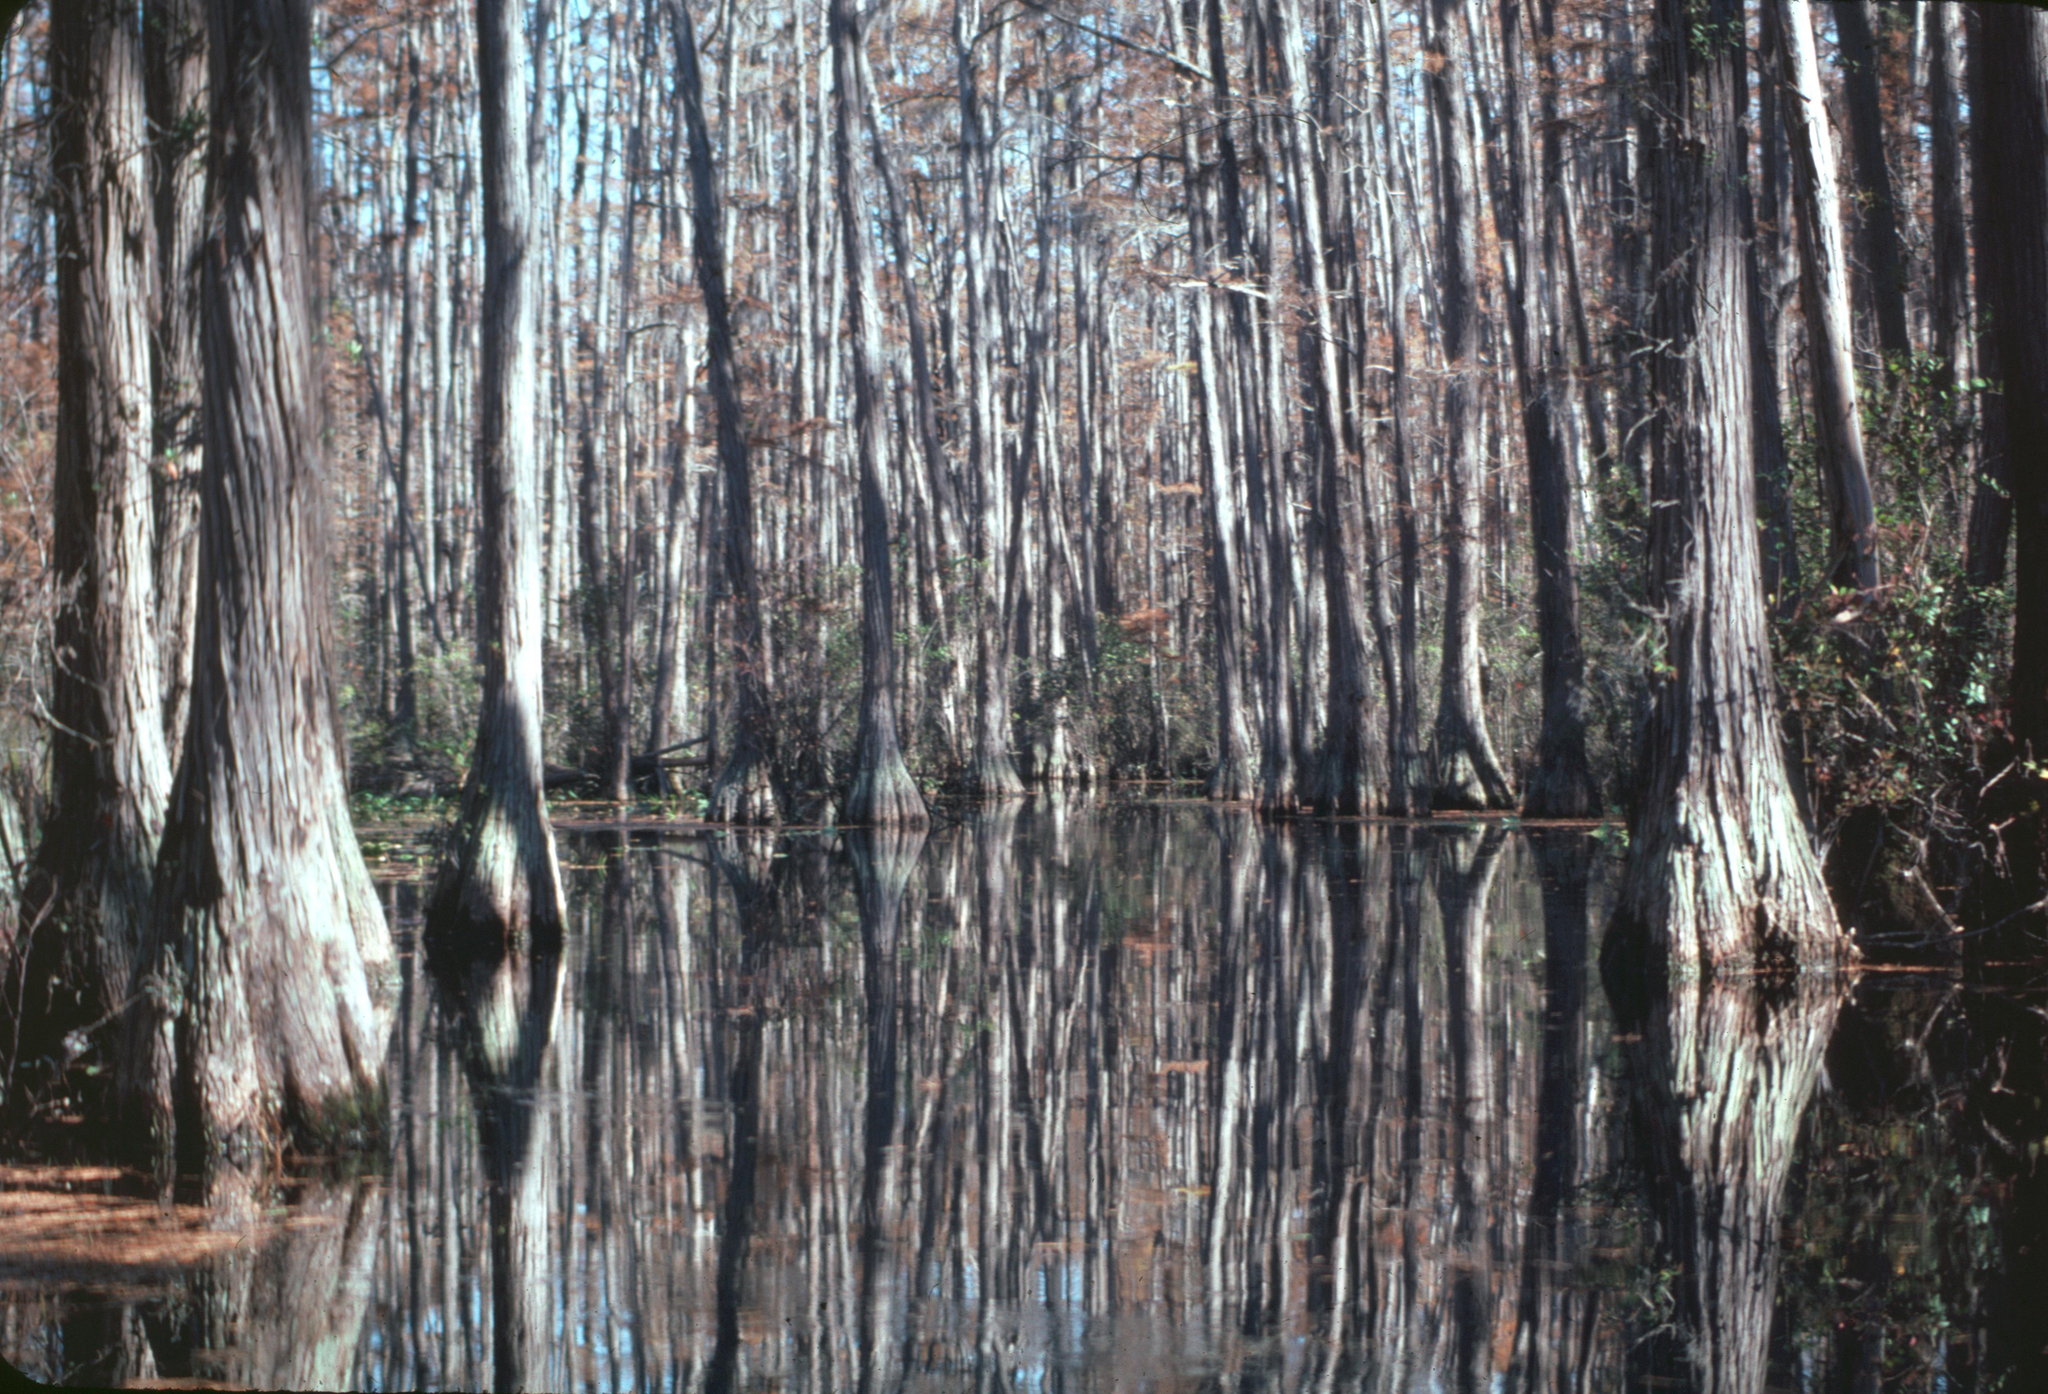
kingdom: Plantae
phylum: Tracheophyta
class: Pinopsida
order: Pinales
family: Cupressaceae
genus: Taxodium
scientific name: Taxodium distichum
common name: Bald cypress
